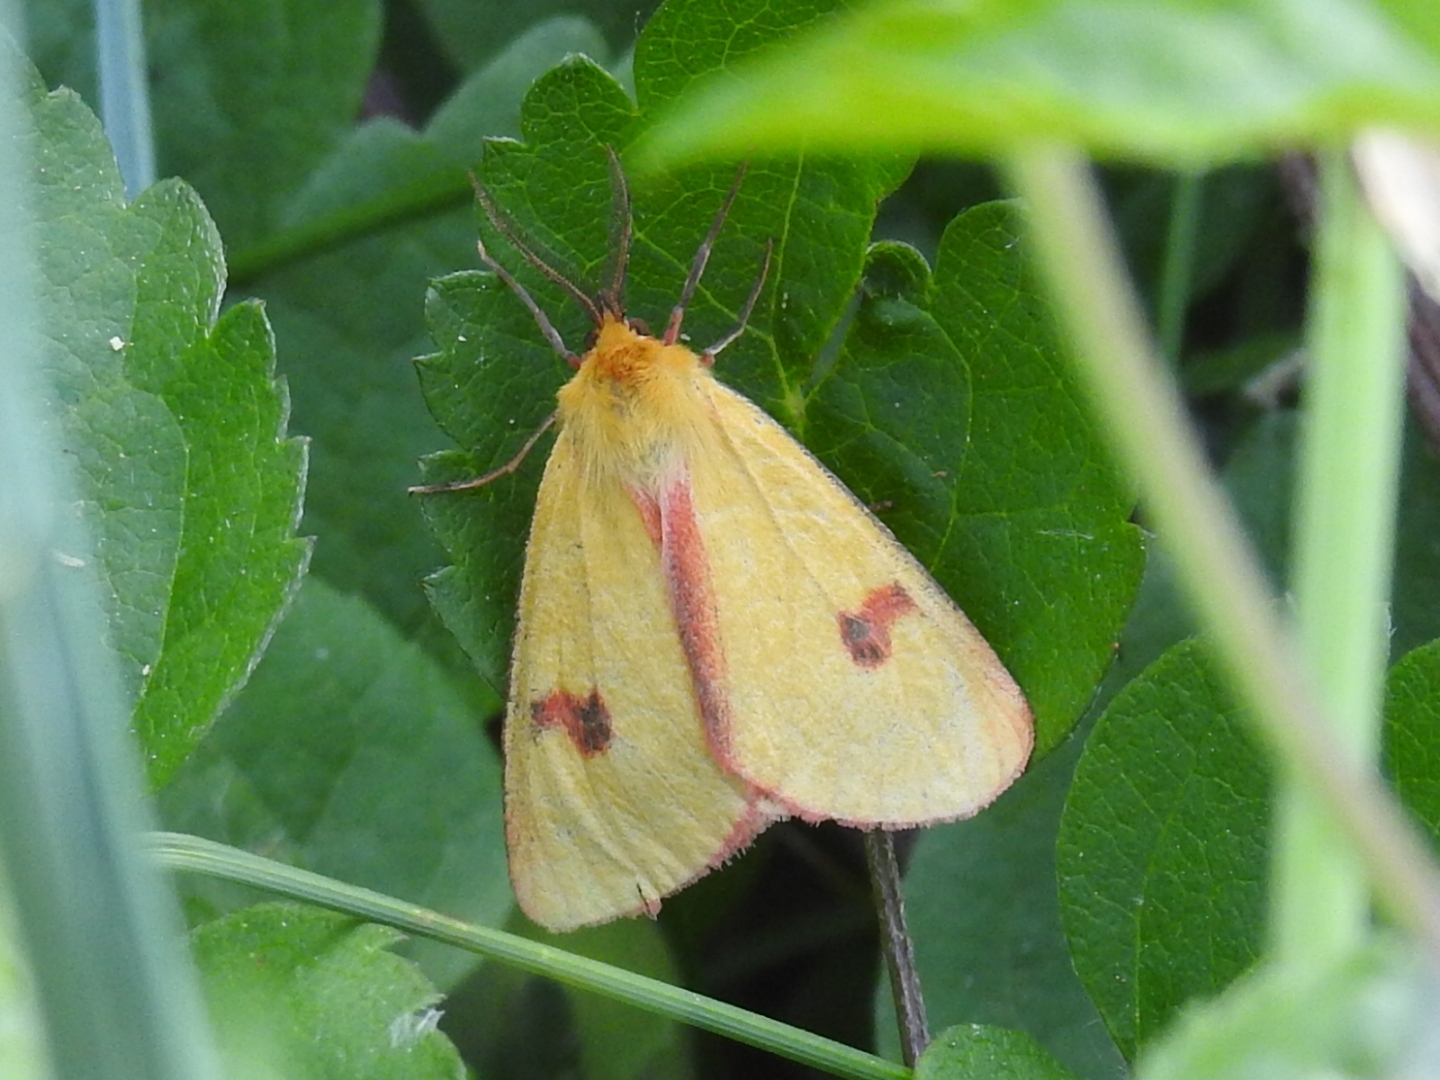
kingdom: Animalia
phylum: Arthropoda
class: Insecta
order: Lepidoptera
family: Erebidae
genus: Diacrisia
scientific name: Diacrisia sannio
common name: Clouded buff
